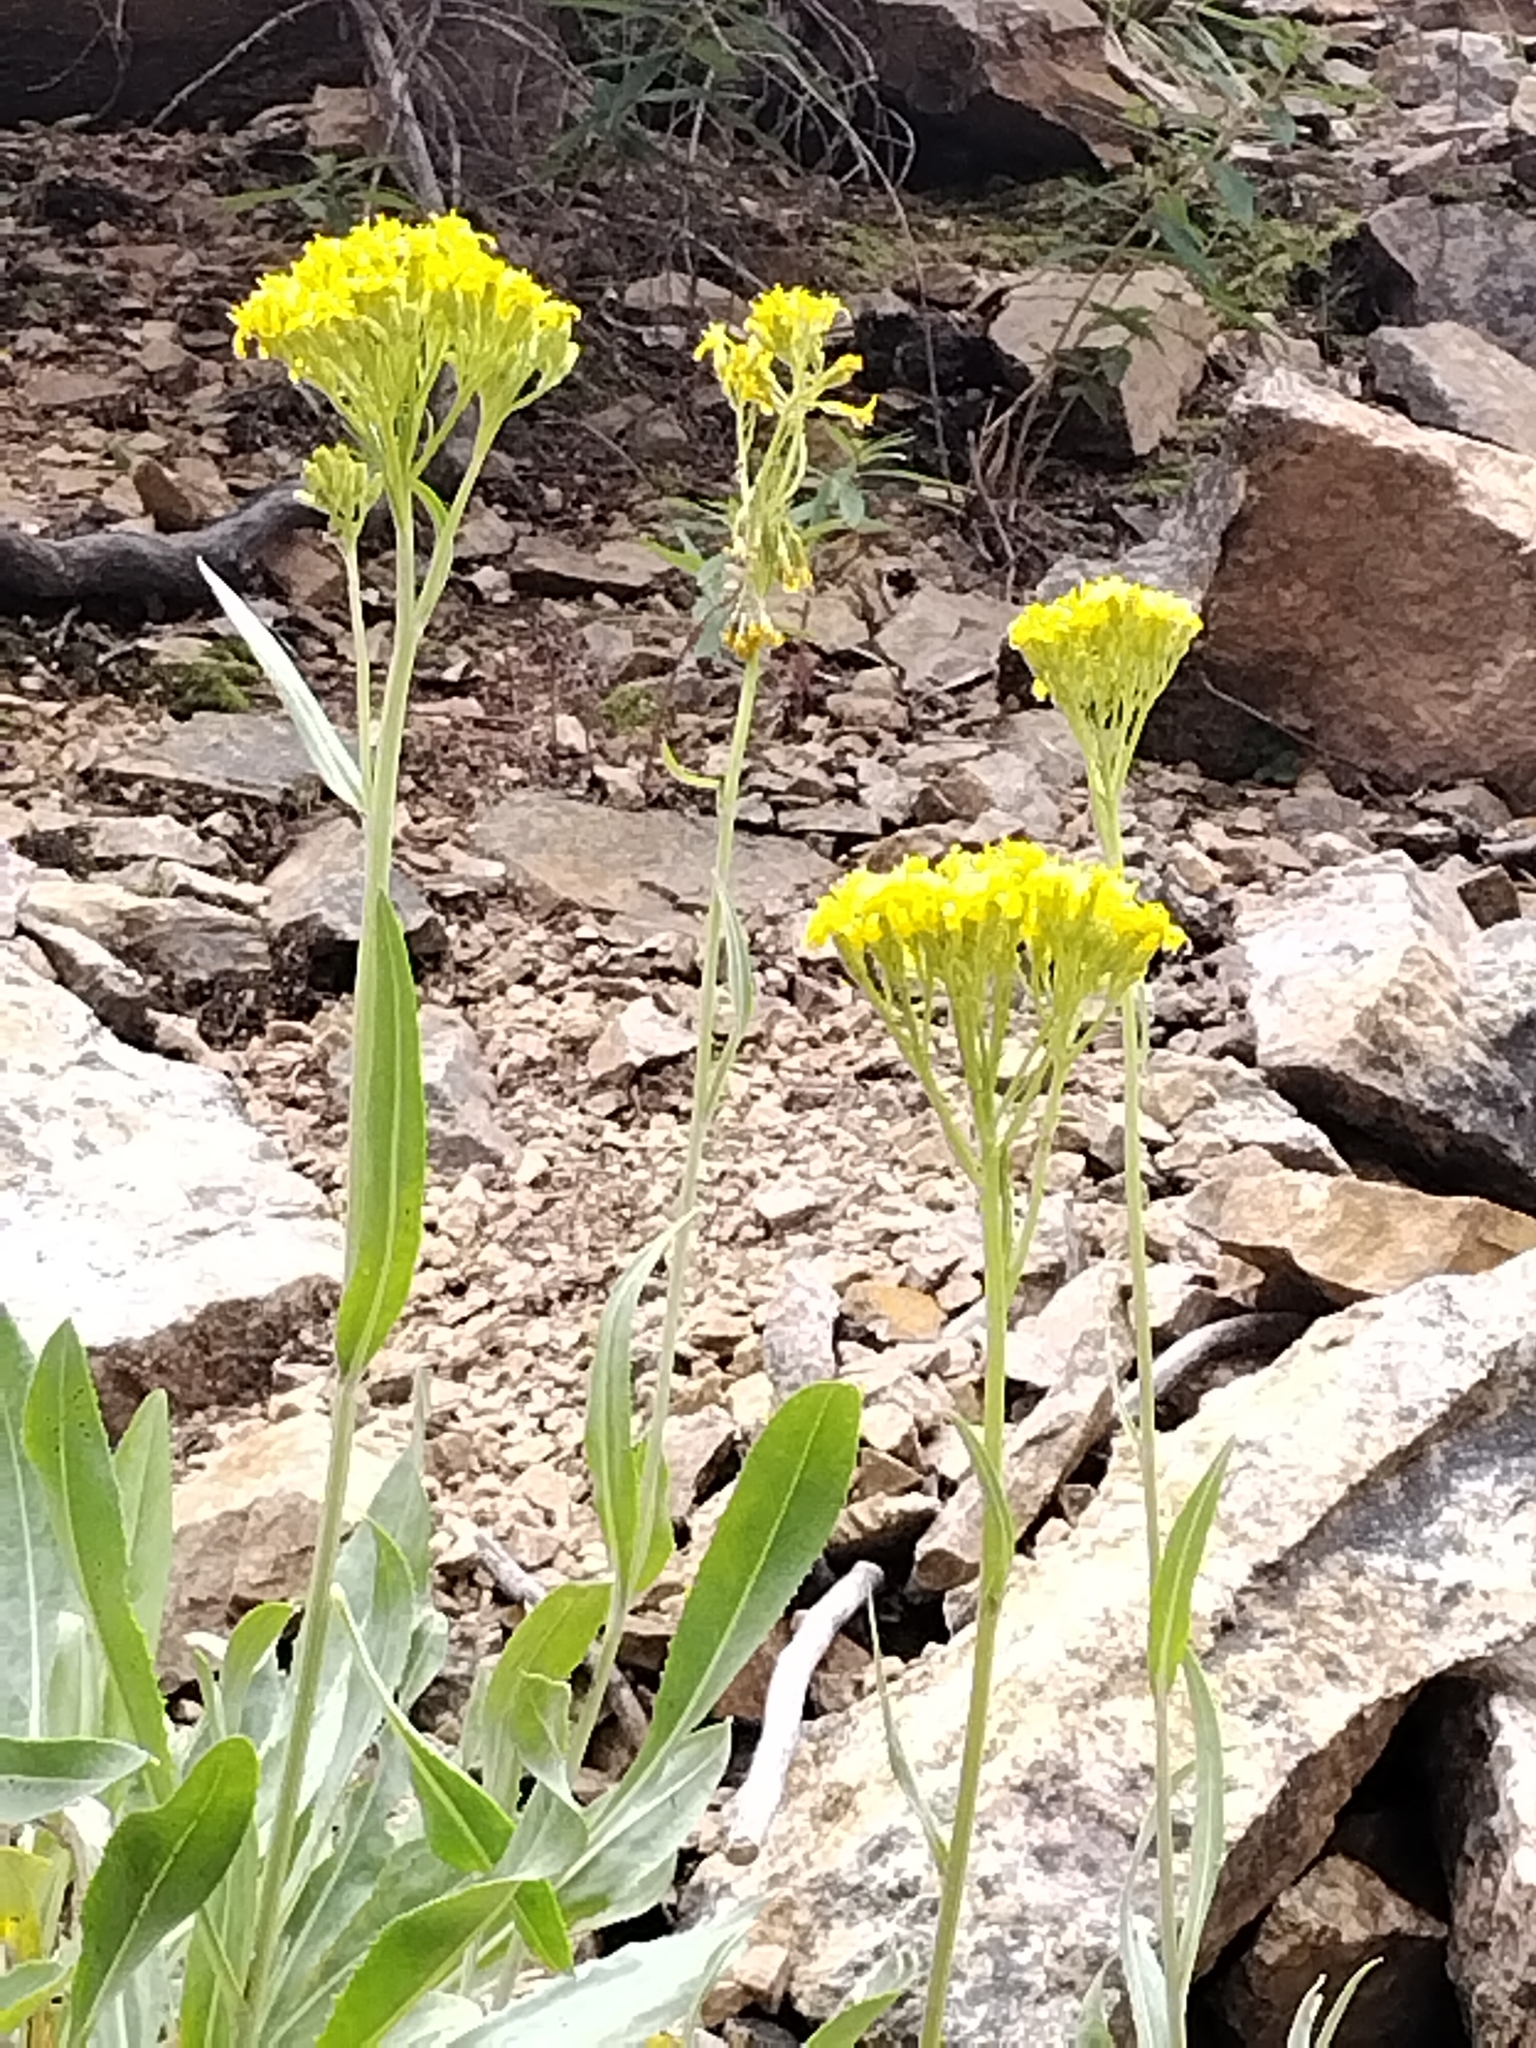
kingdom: Plantae
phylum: Tracheophyta
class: Magnoliopsida
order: Asterales
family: Asteraceae
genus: Senecio
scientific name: Senecio atratus
